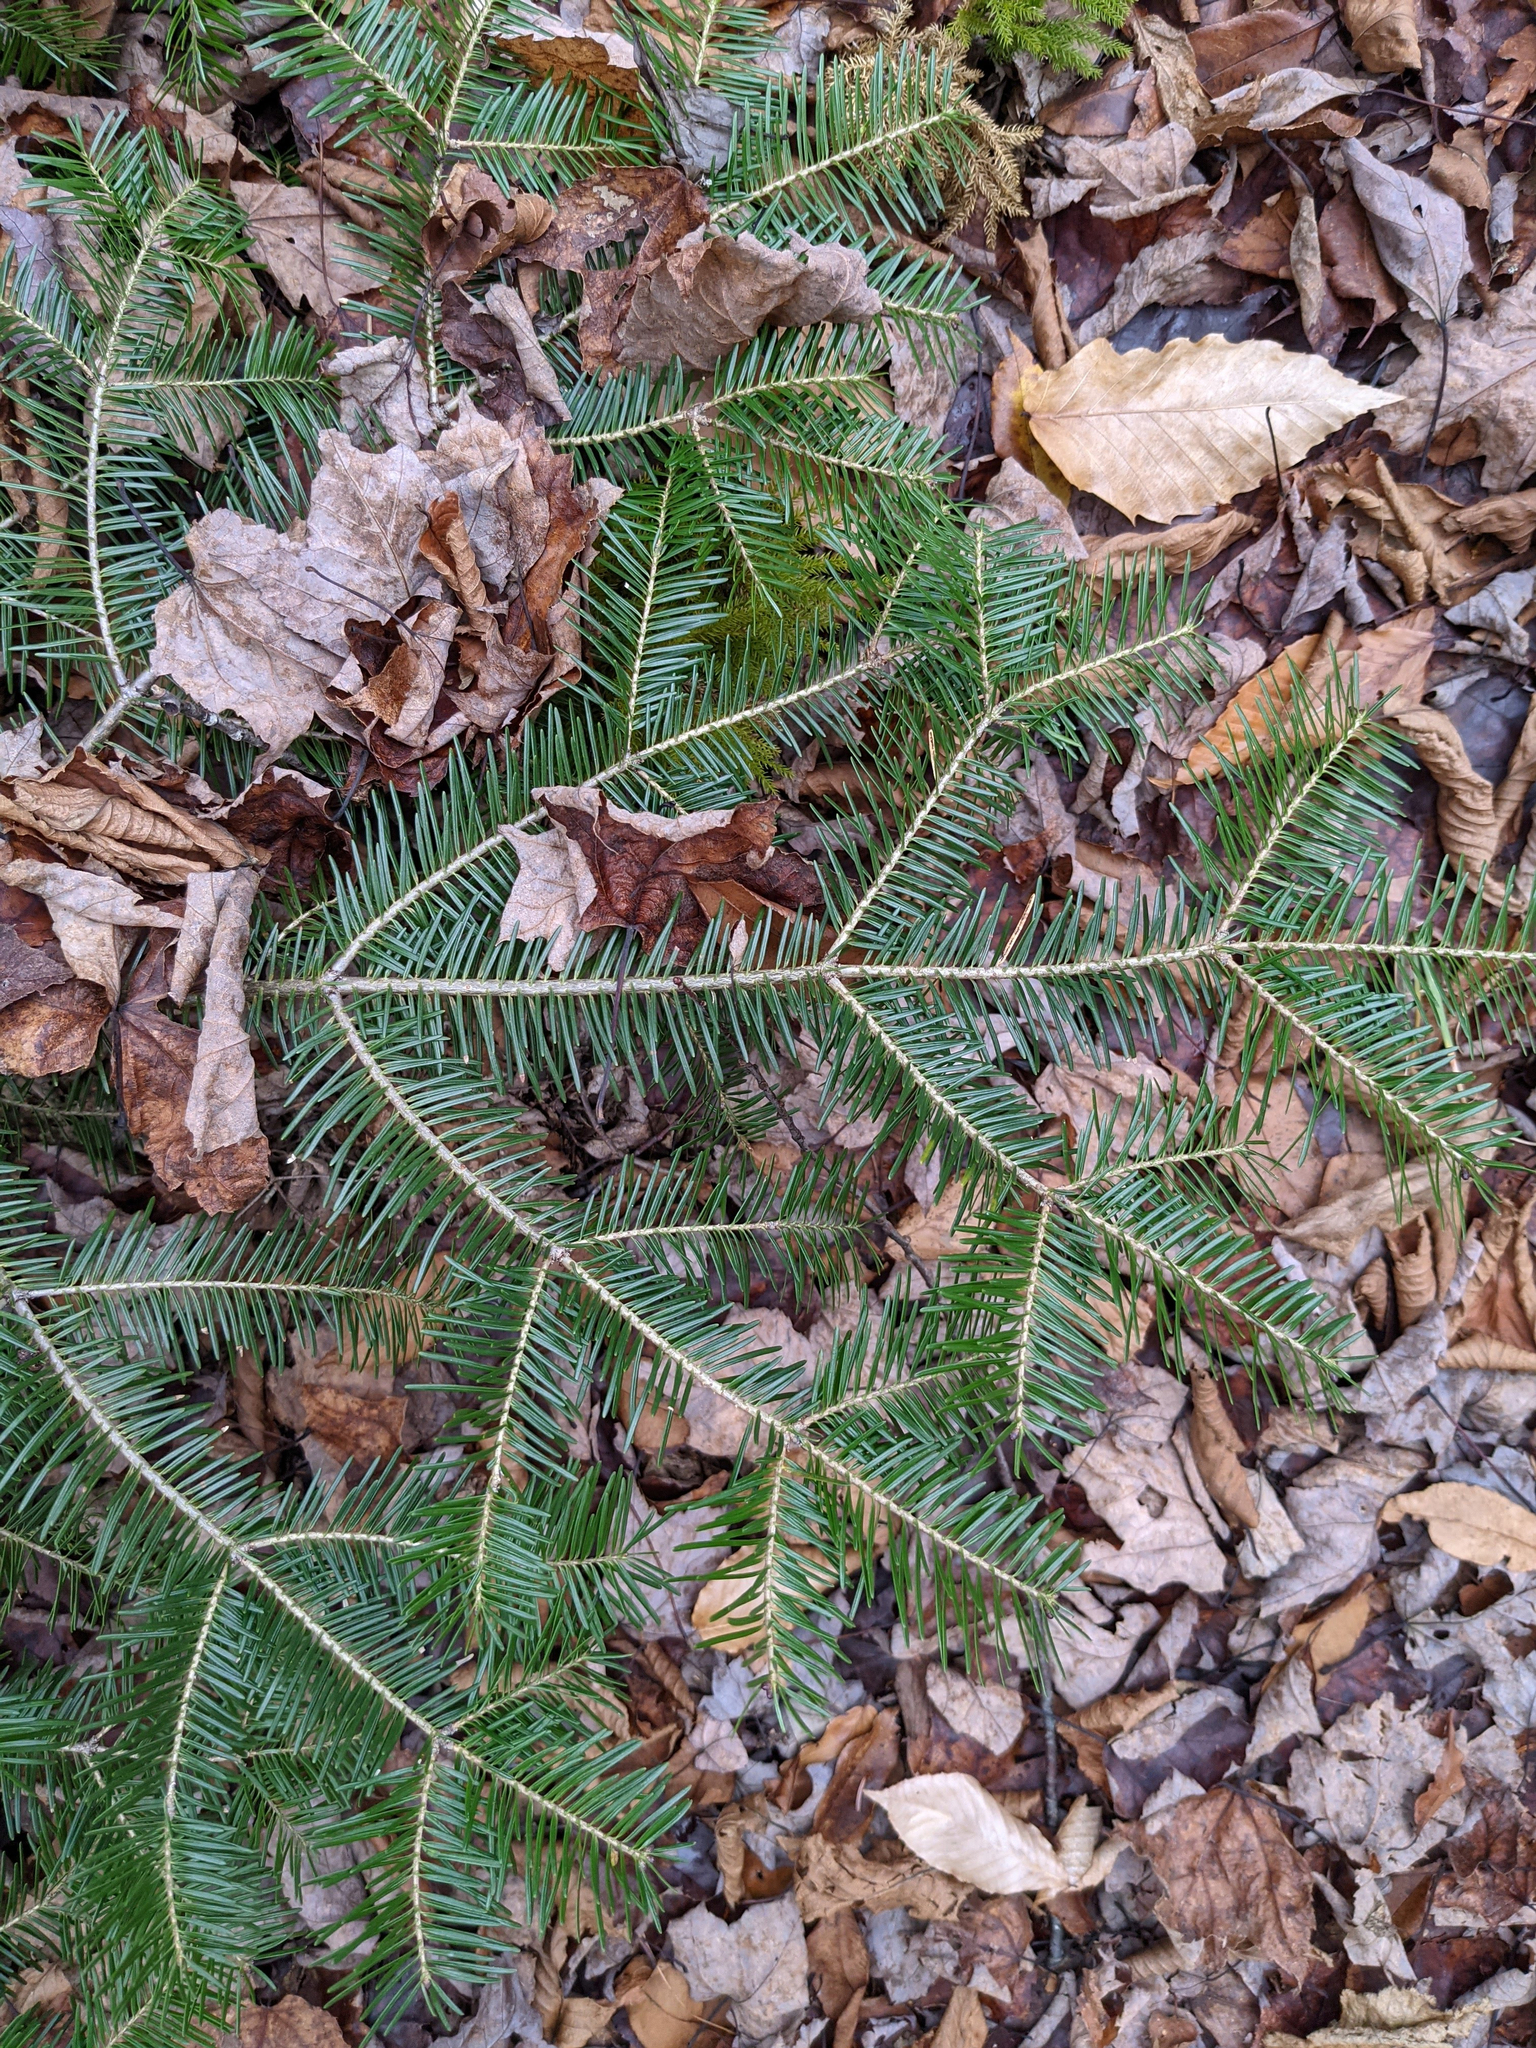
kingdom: Plantae
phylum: Tracheophyta
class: Pinopsida
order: Pinales
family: Pinaceae
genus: Abies
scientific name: Abies balsamea
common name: Balsam fir
